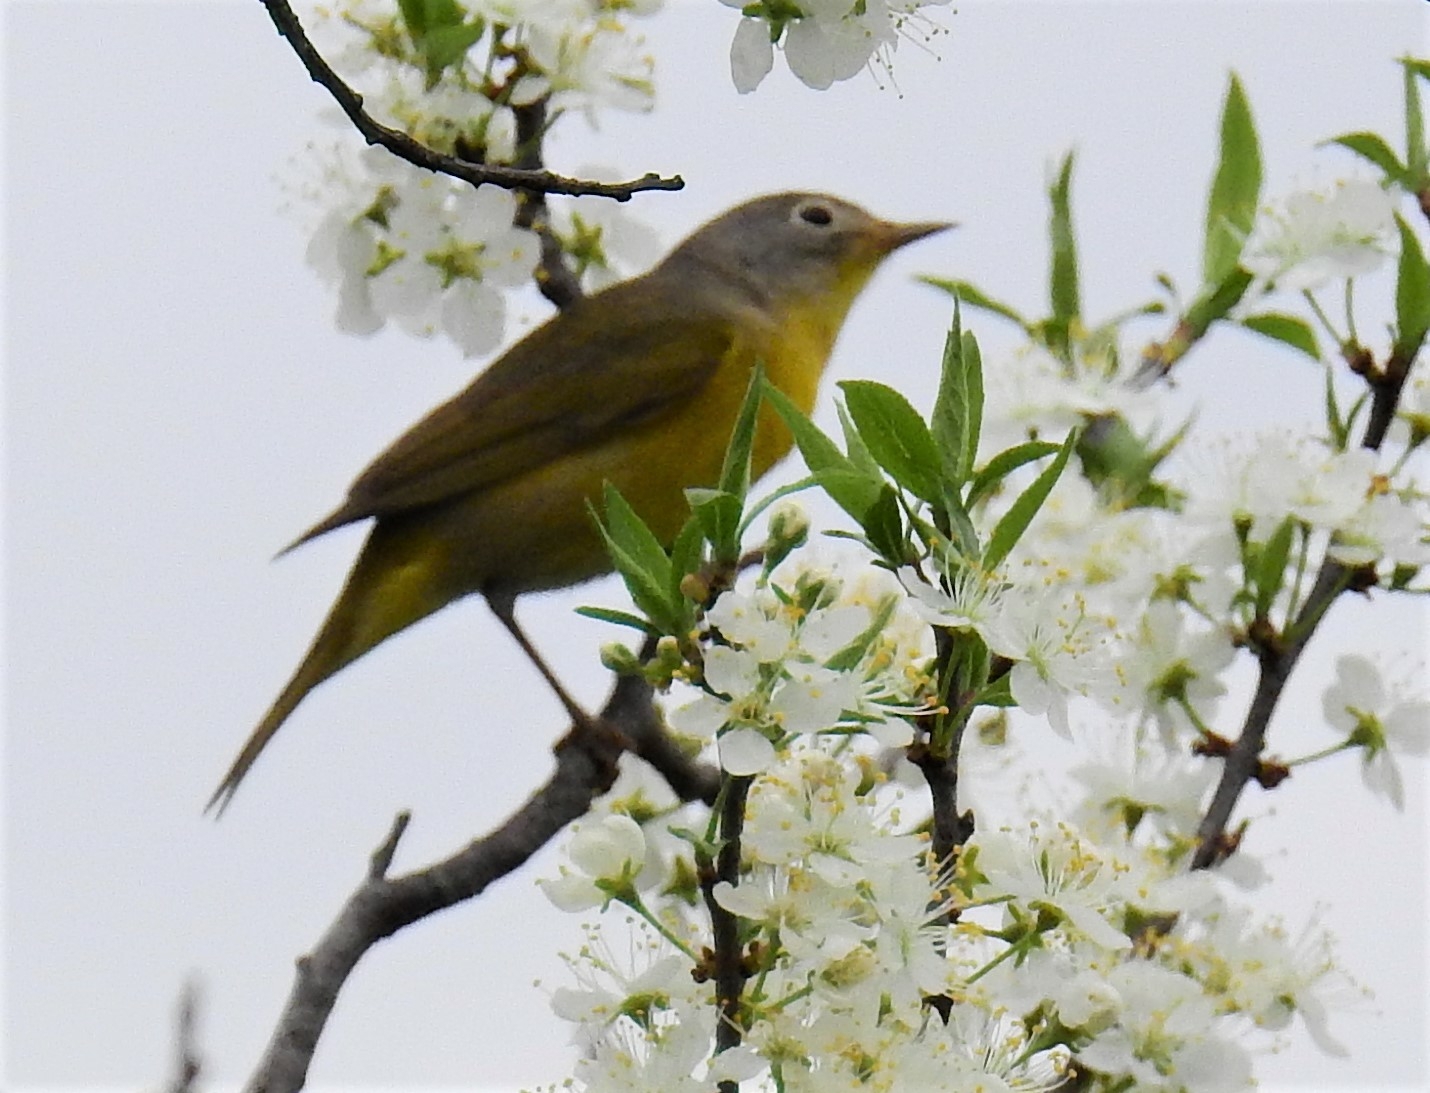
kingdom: Animalia
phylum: Chordata
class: Aves
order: Passeriformes
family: Parulidae
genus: Leiothlypis
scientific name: Leiothlypis ruficapilla
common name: Nashville warbler
